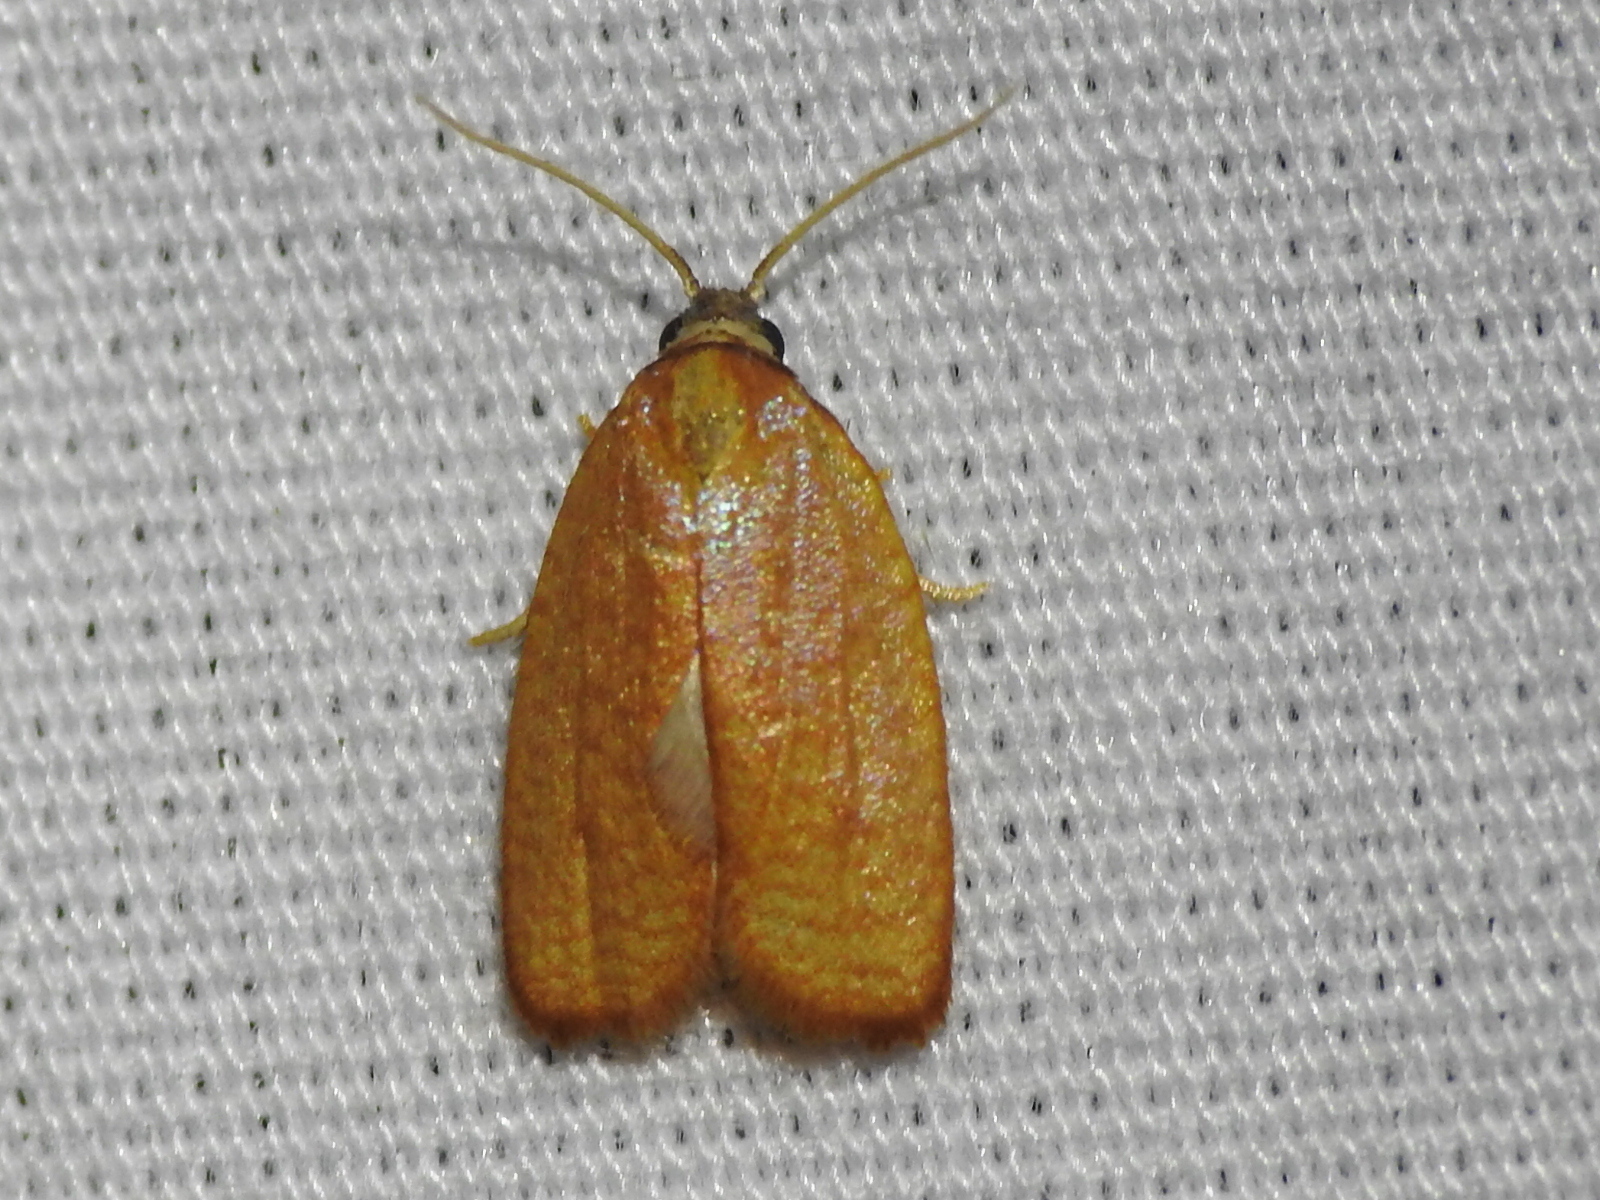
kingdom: Animalia
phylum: Arthropoda
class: Insecta
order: Lepidoptera
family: Tortricidae
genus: Sparganothis
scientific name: Sparganothis demissana
